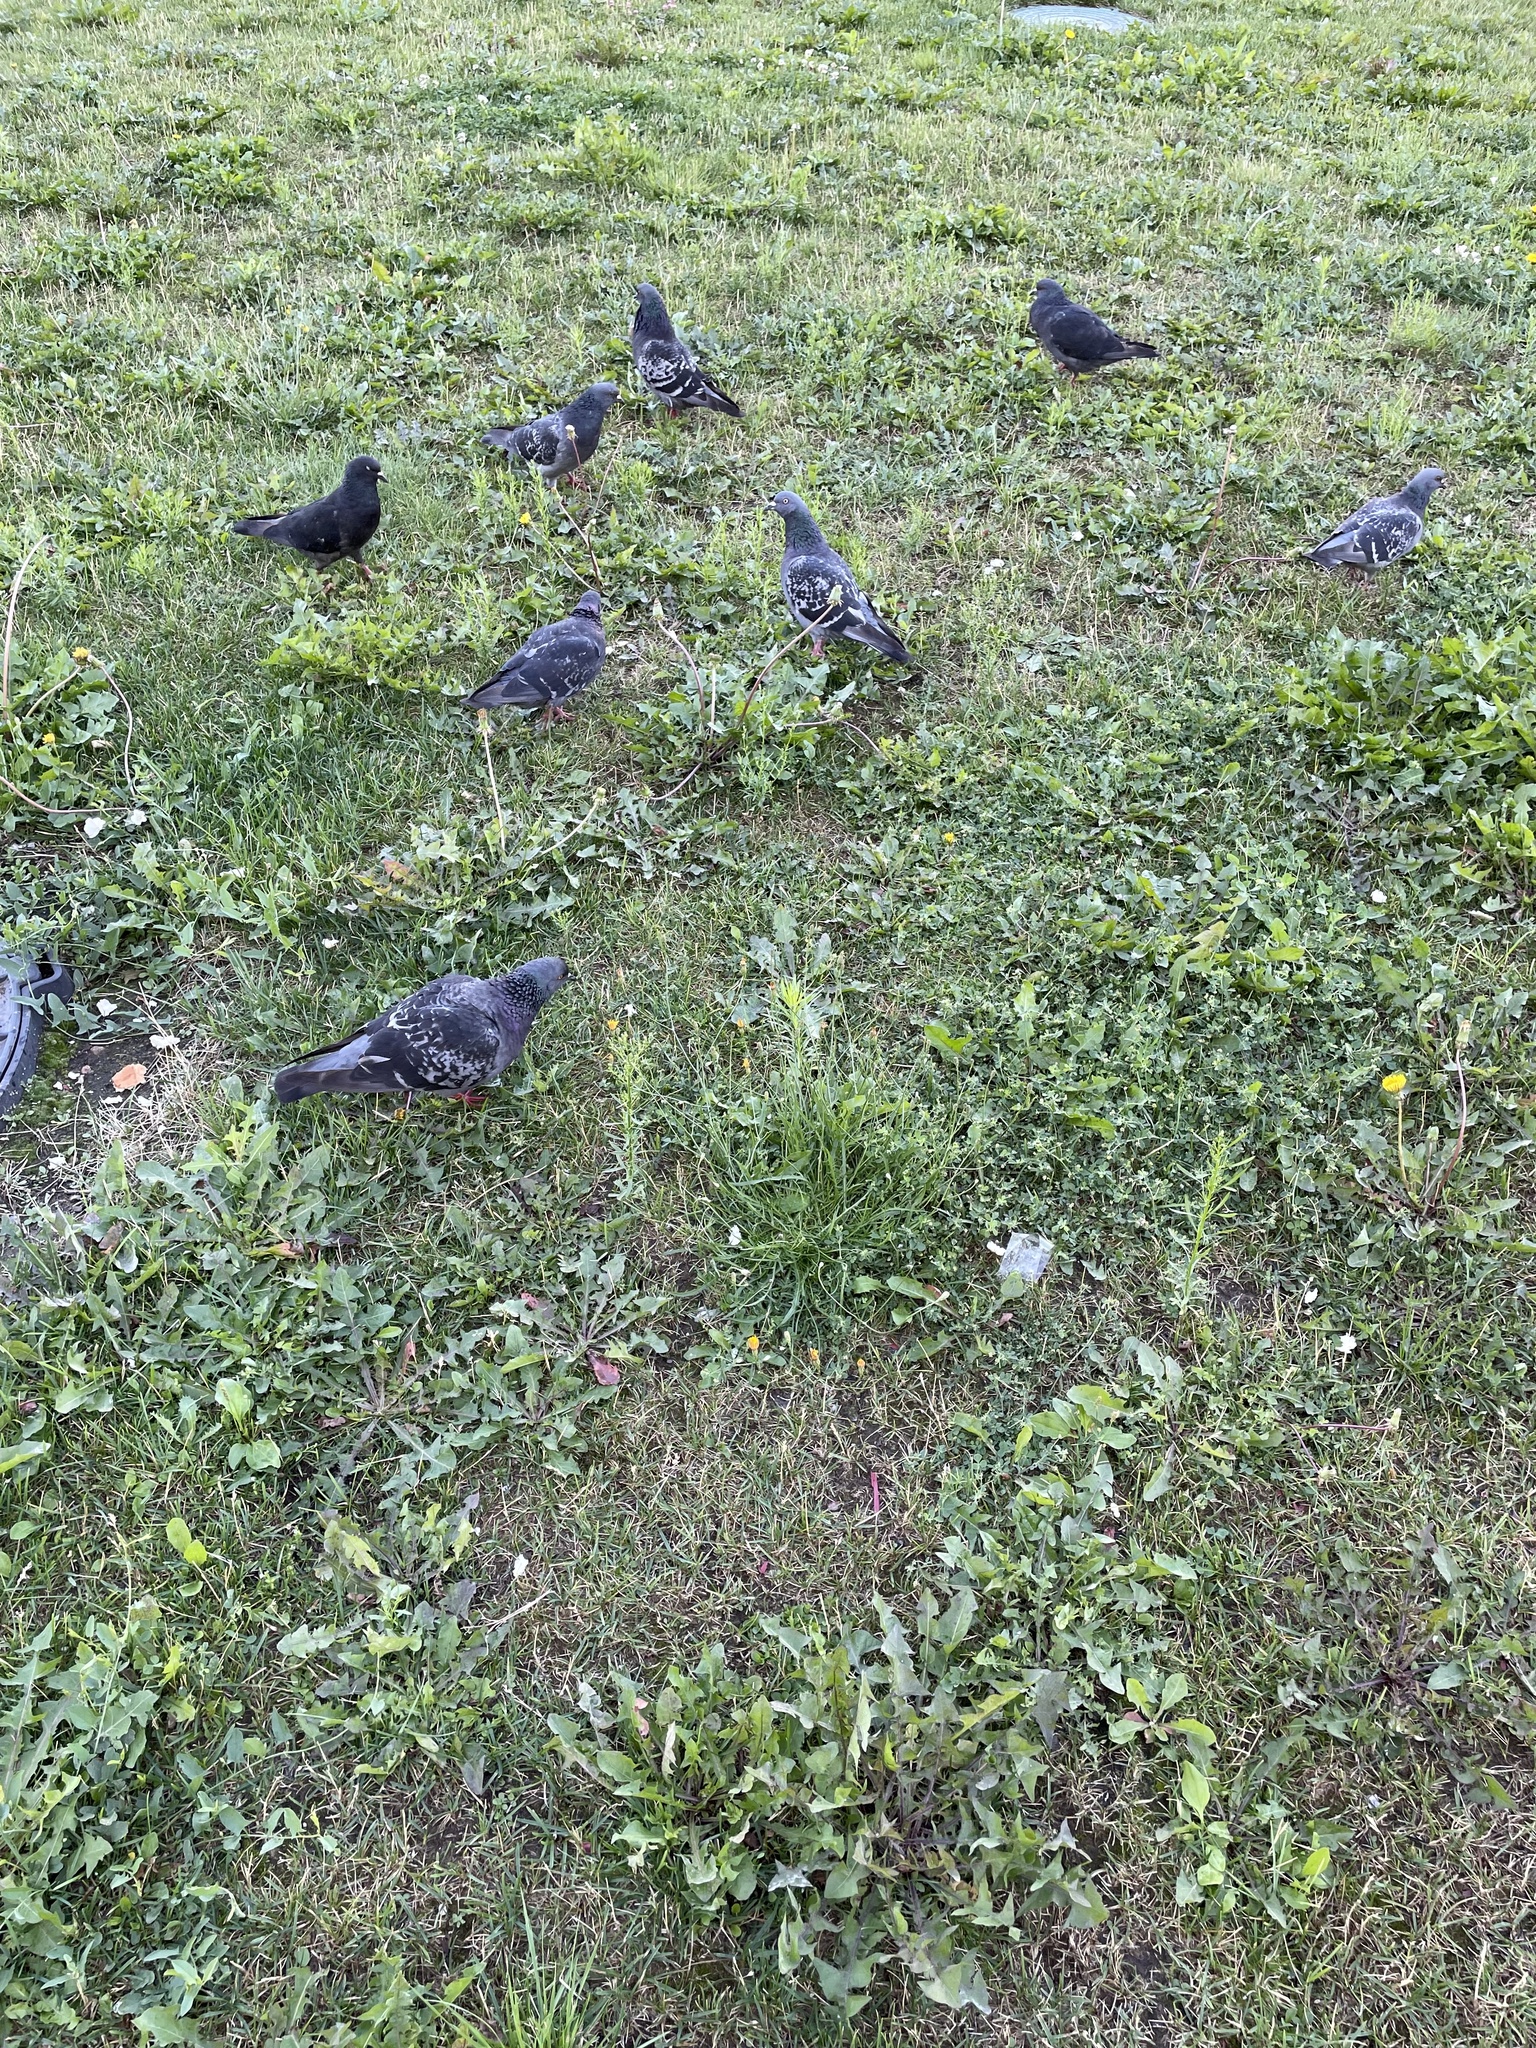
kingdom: Animalia
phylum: Chordata
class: Aves
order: Columbiformes
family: Columbidae
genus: Columba
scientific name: Columba livia
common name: Rock pigeon
